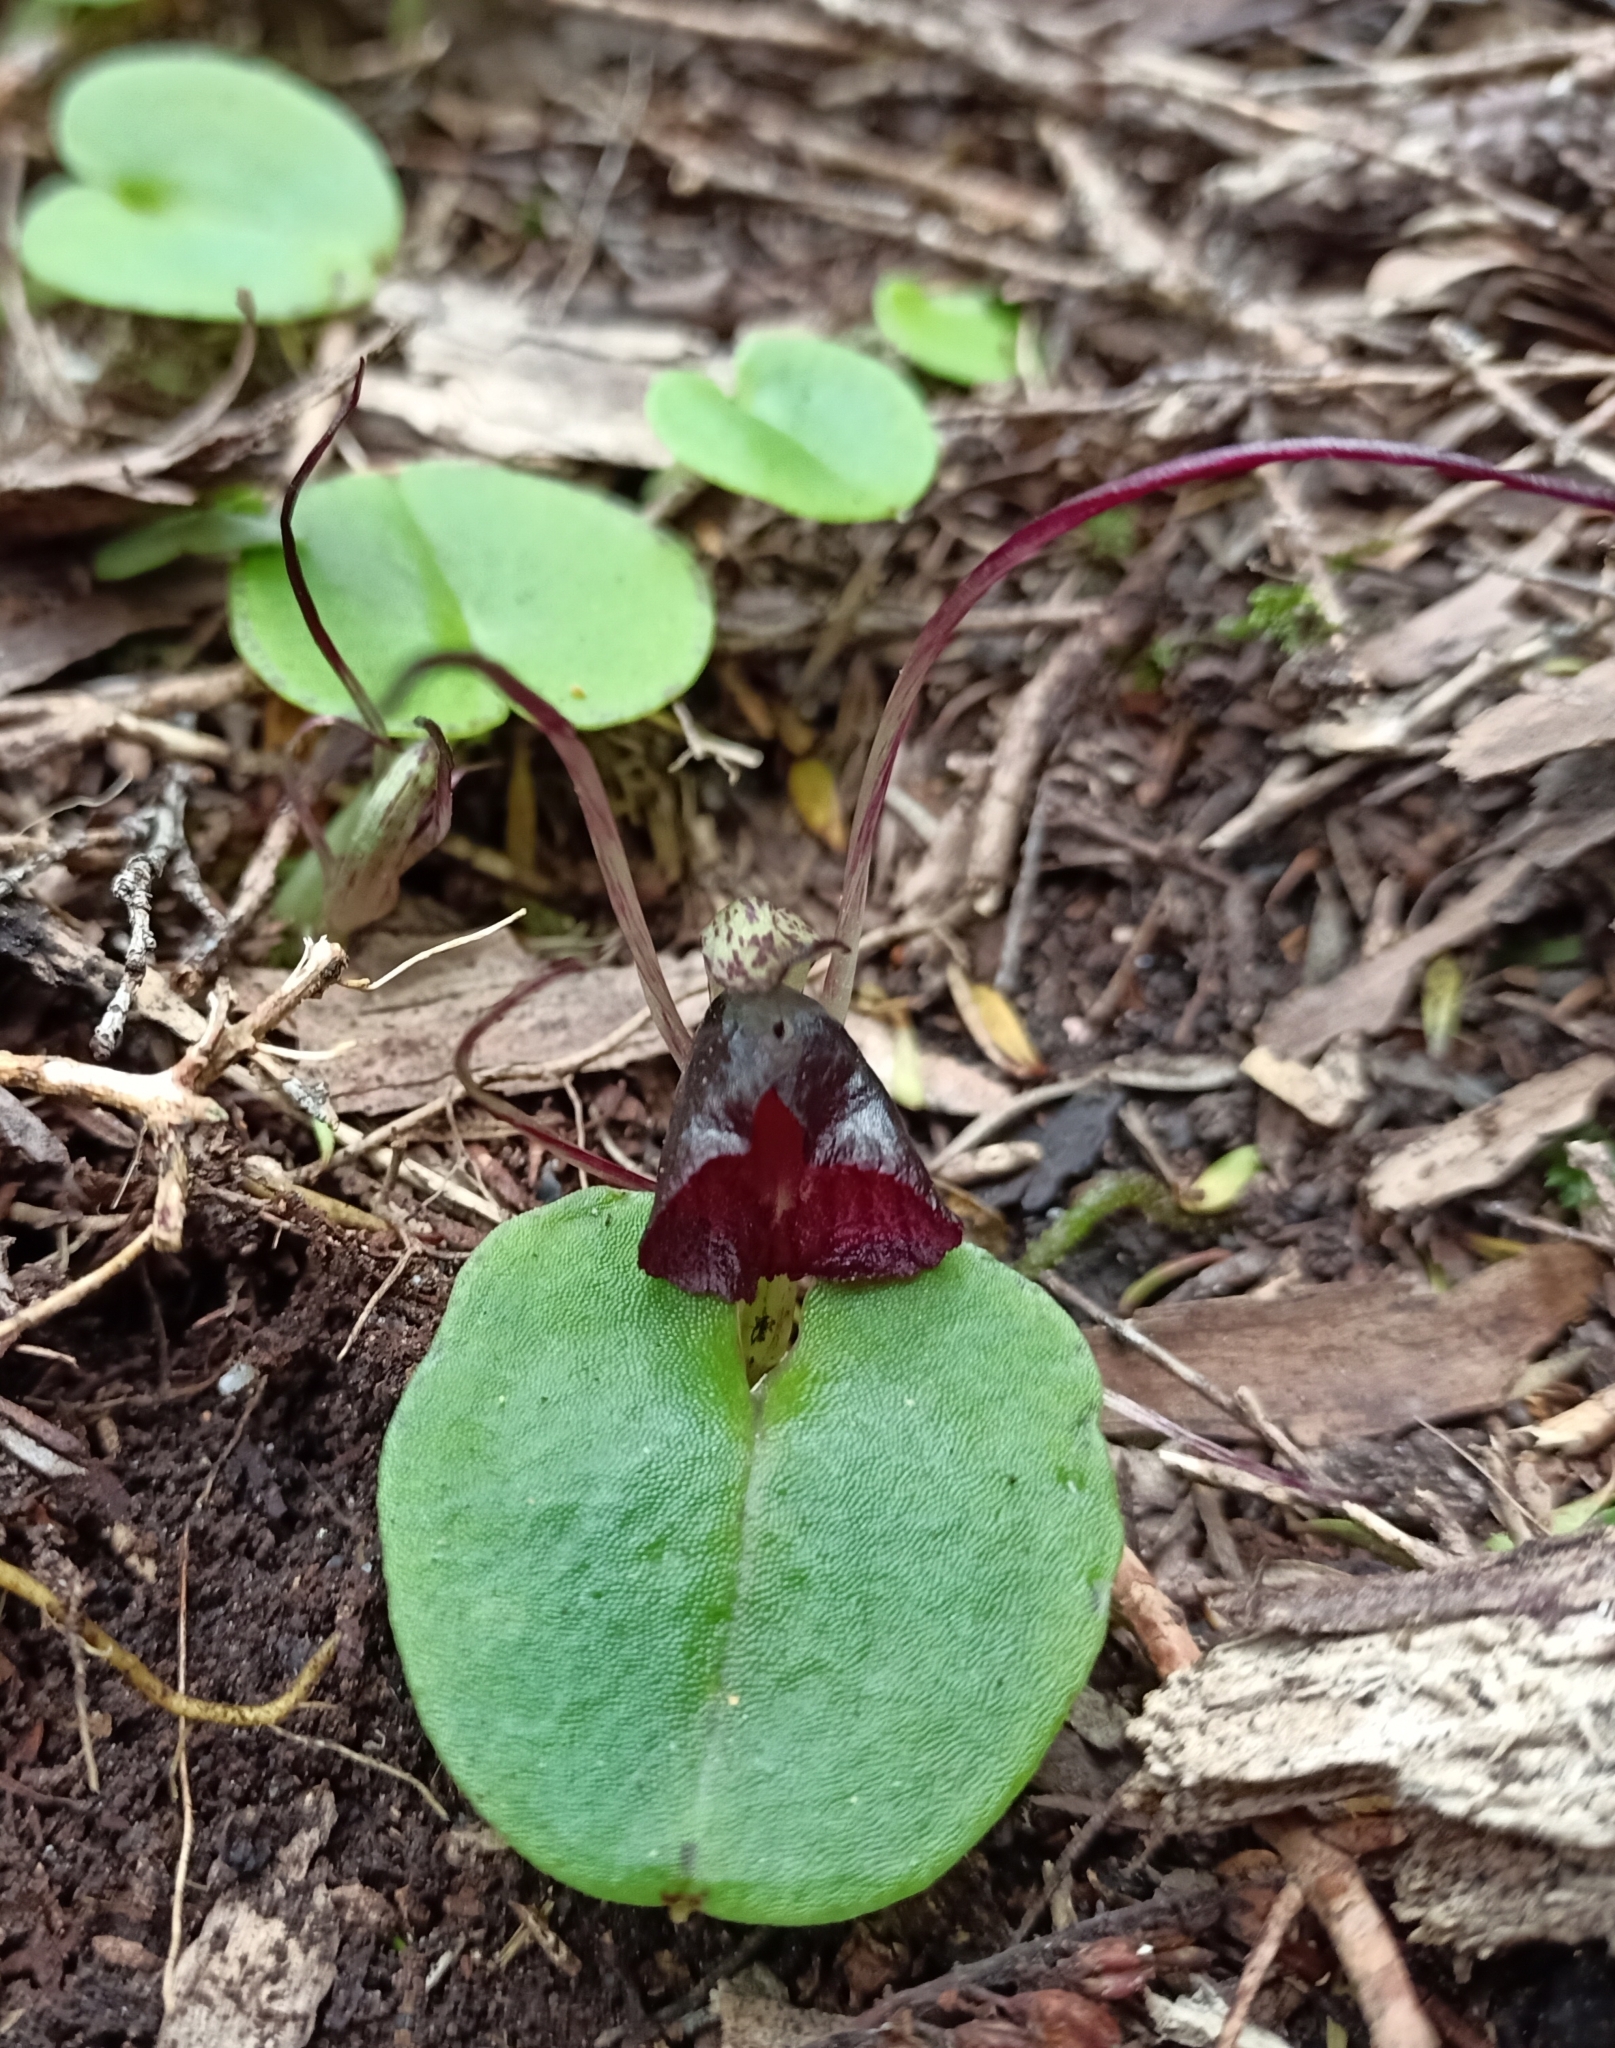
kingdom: Plantae
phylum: Tracheophyta
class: Liliopsida
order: Asparagales
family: Orchidaceae
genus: Corybas
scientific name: Corybas macranthus
